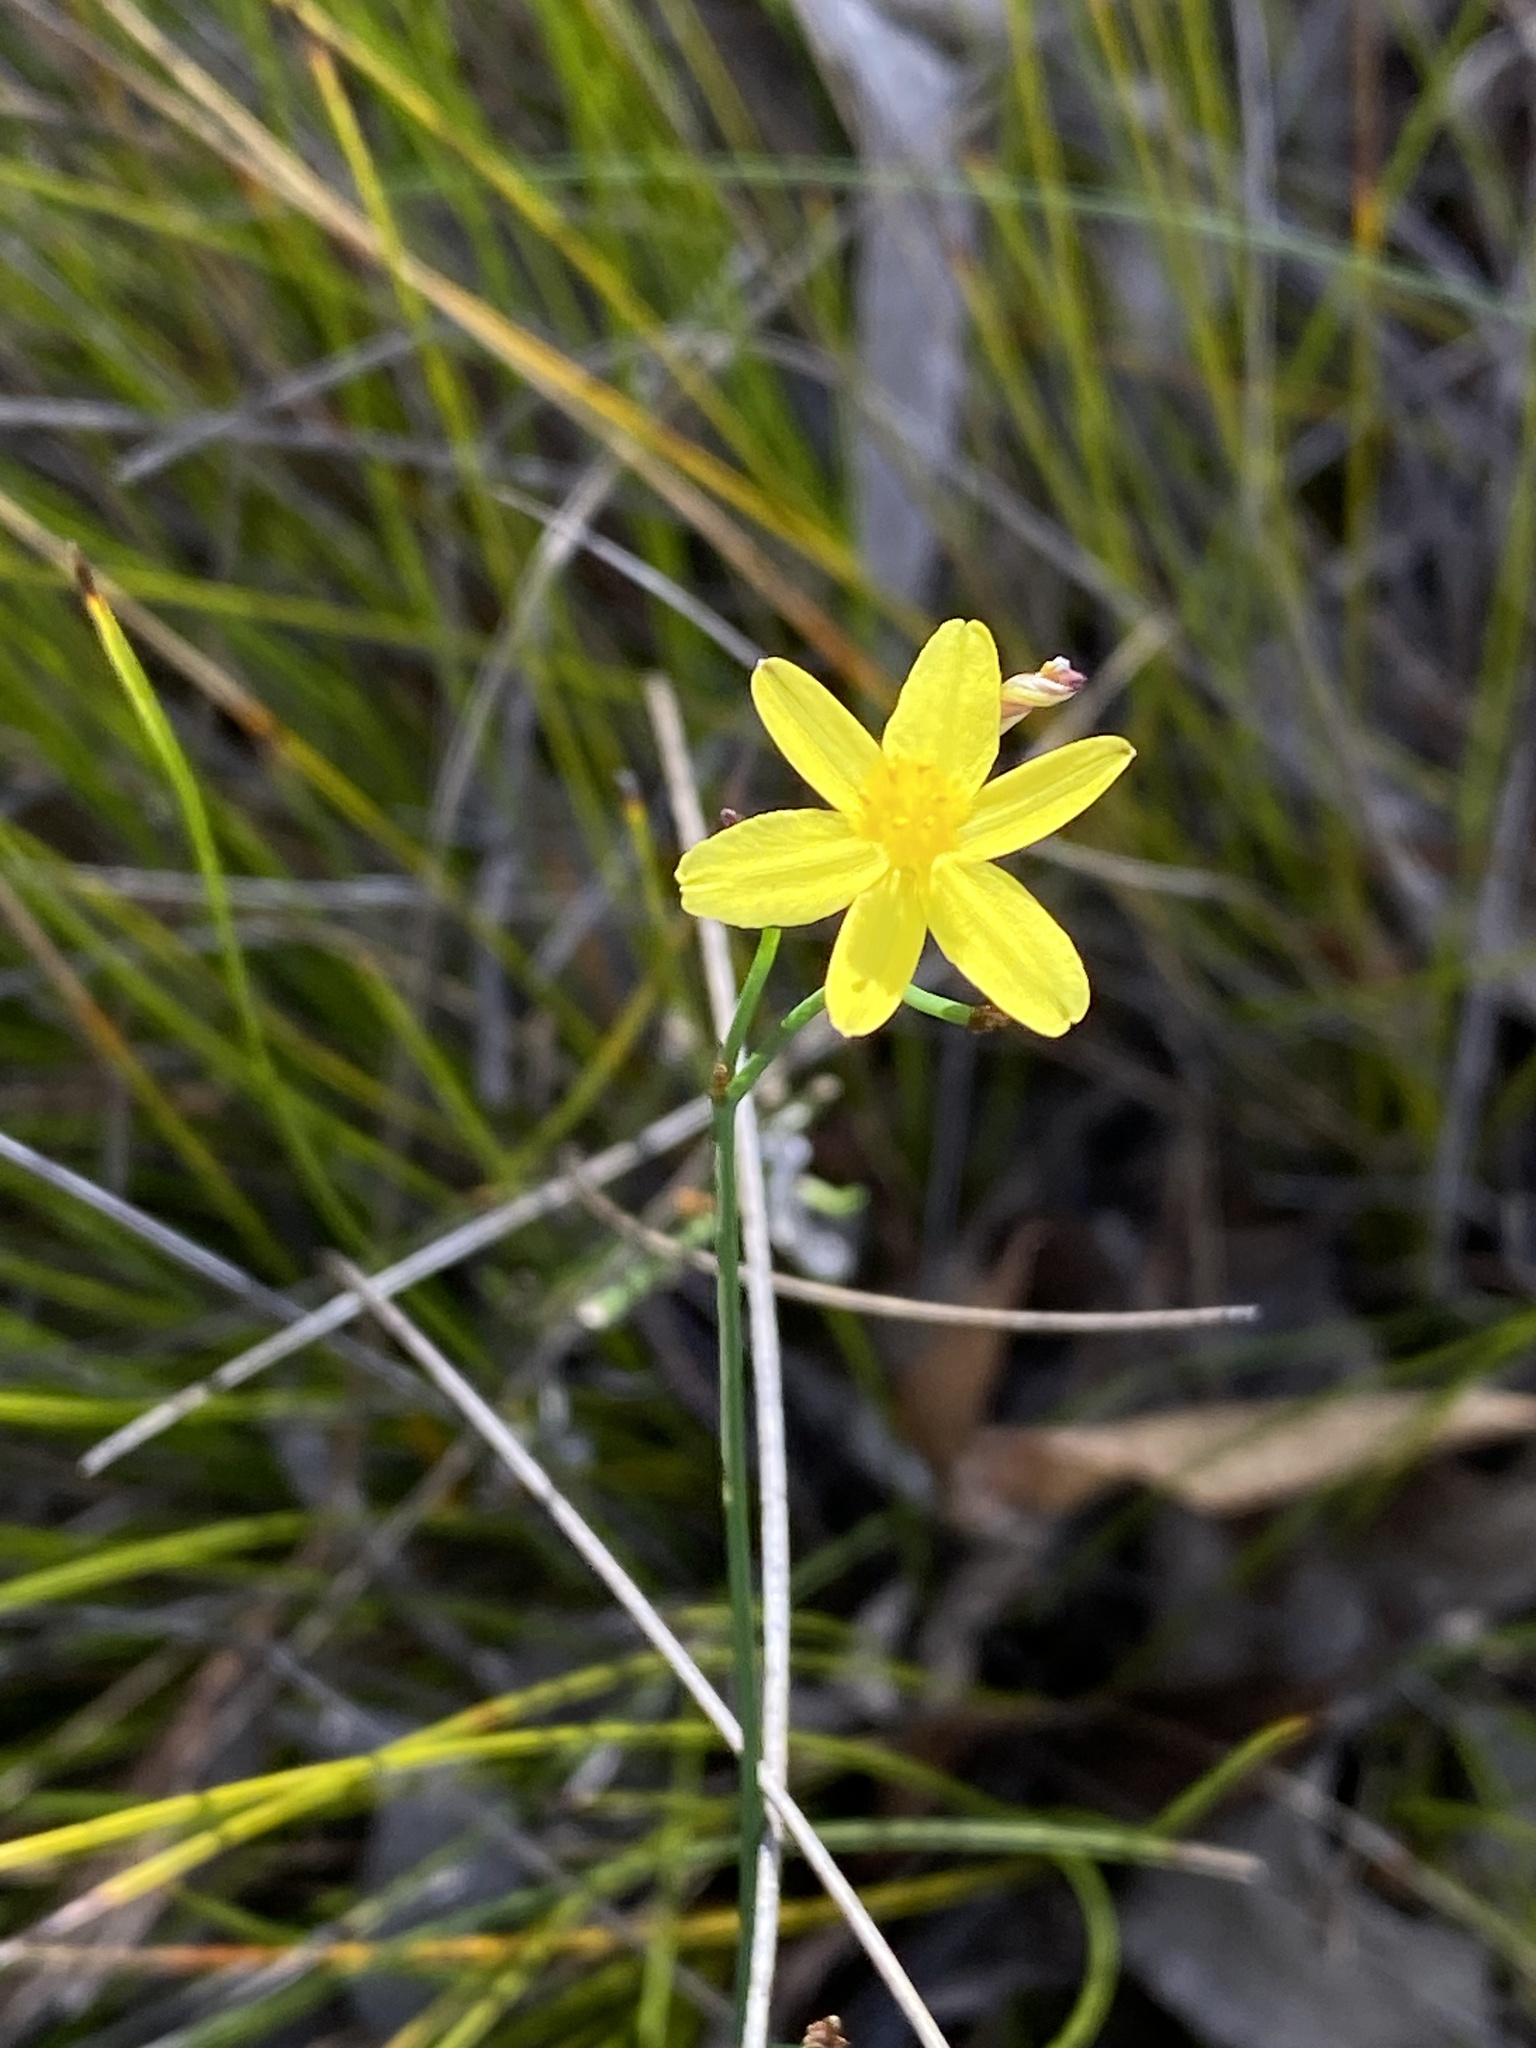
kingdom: Plantae
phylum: Tracheophyta
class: Liliopsida
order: Asparagales
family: Asphodelaceae
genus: Tricoryne
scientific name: Tricoryne elatior
